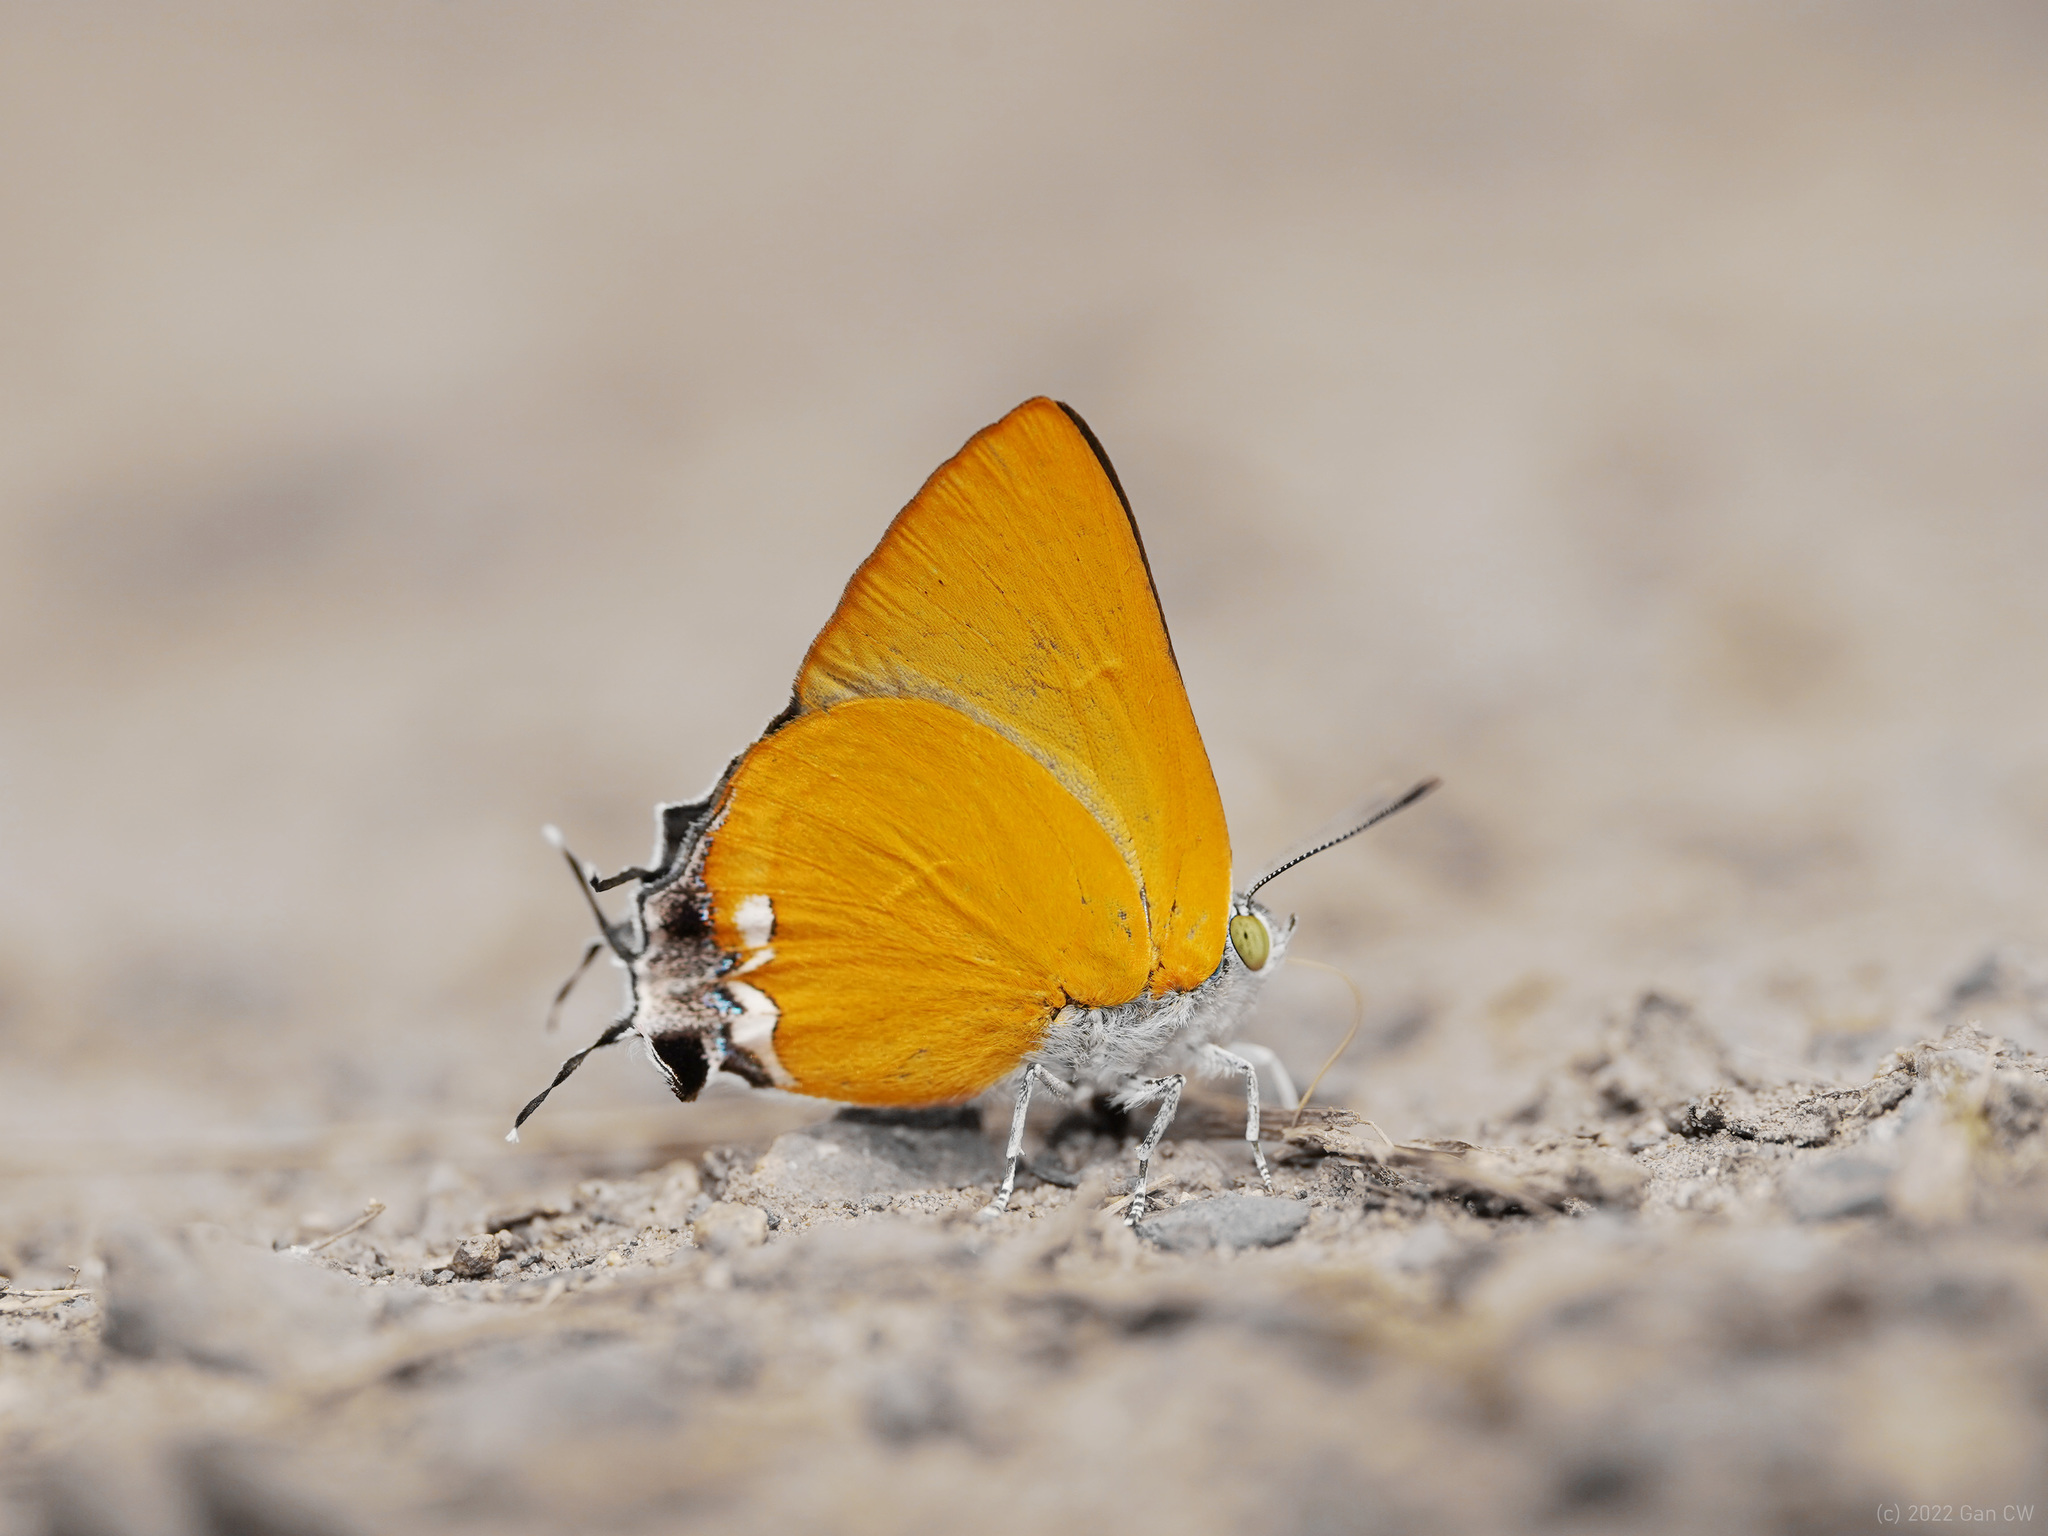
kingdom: Animalia
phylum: Arthropoda
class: Insecta
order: Lepidoptera
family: Lycaenidae
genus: Pseudomyrina
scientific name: Pseudomyrina
